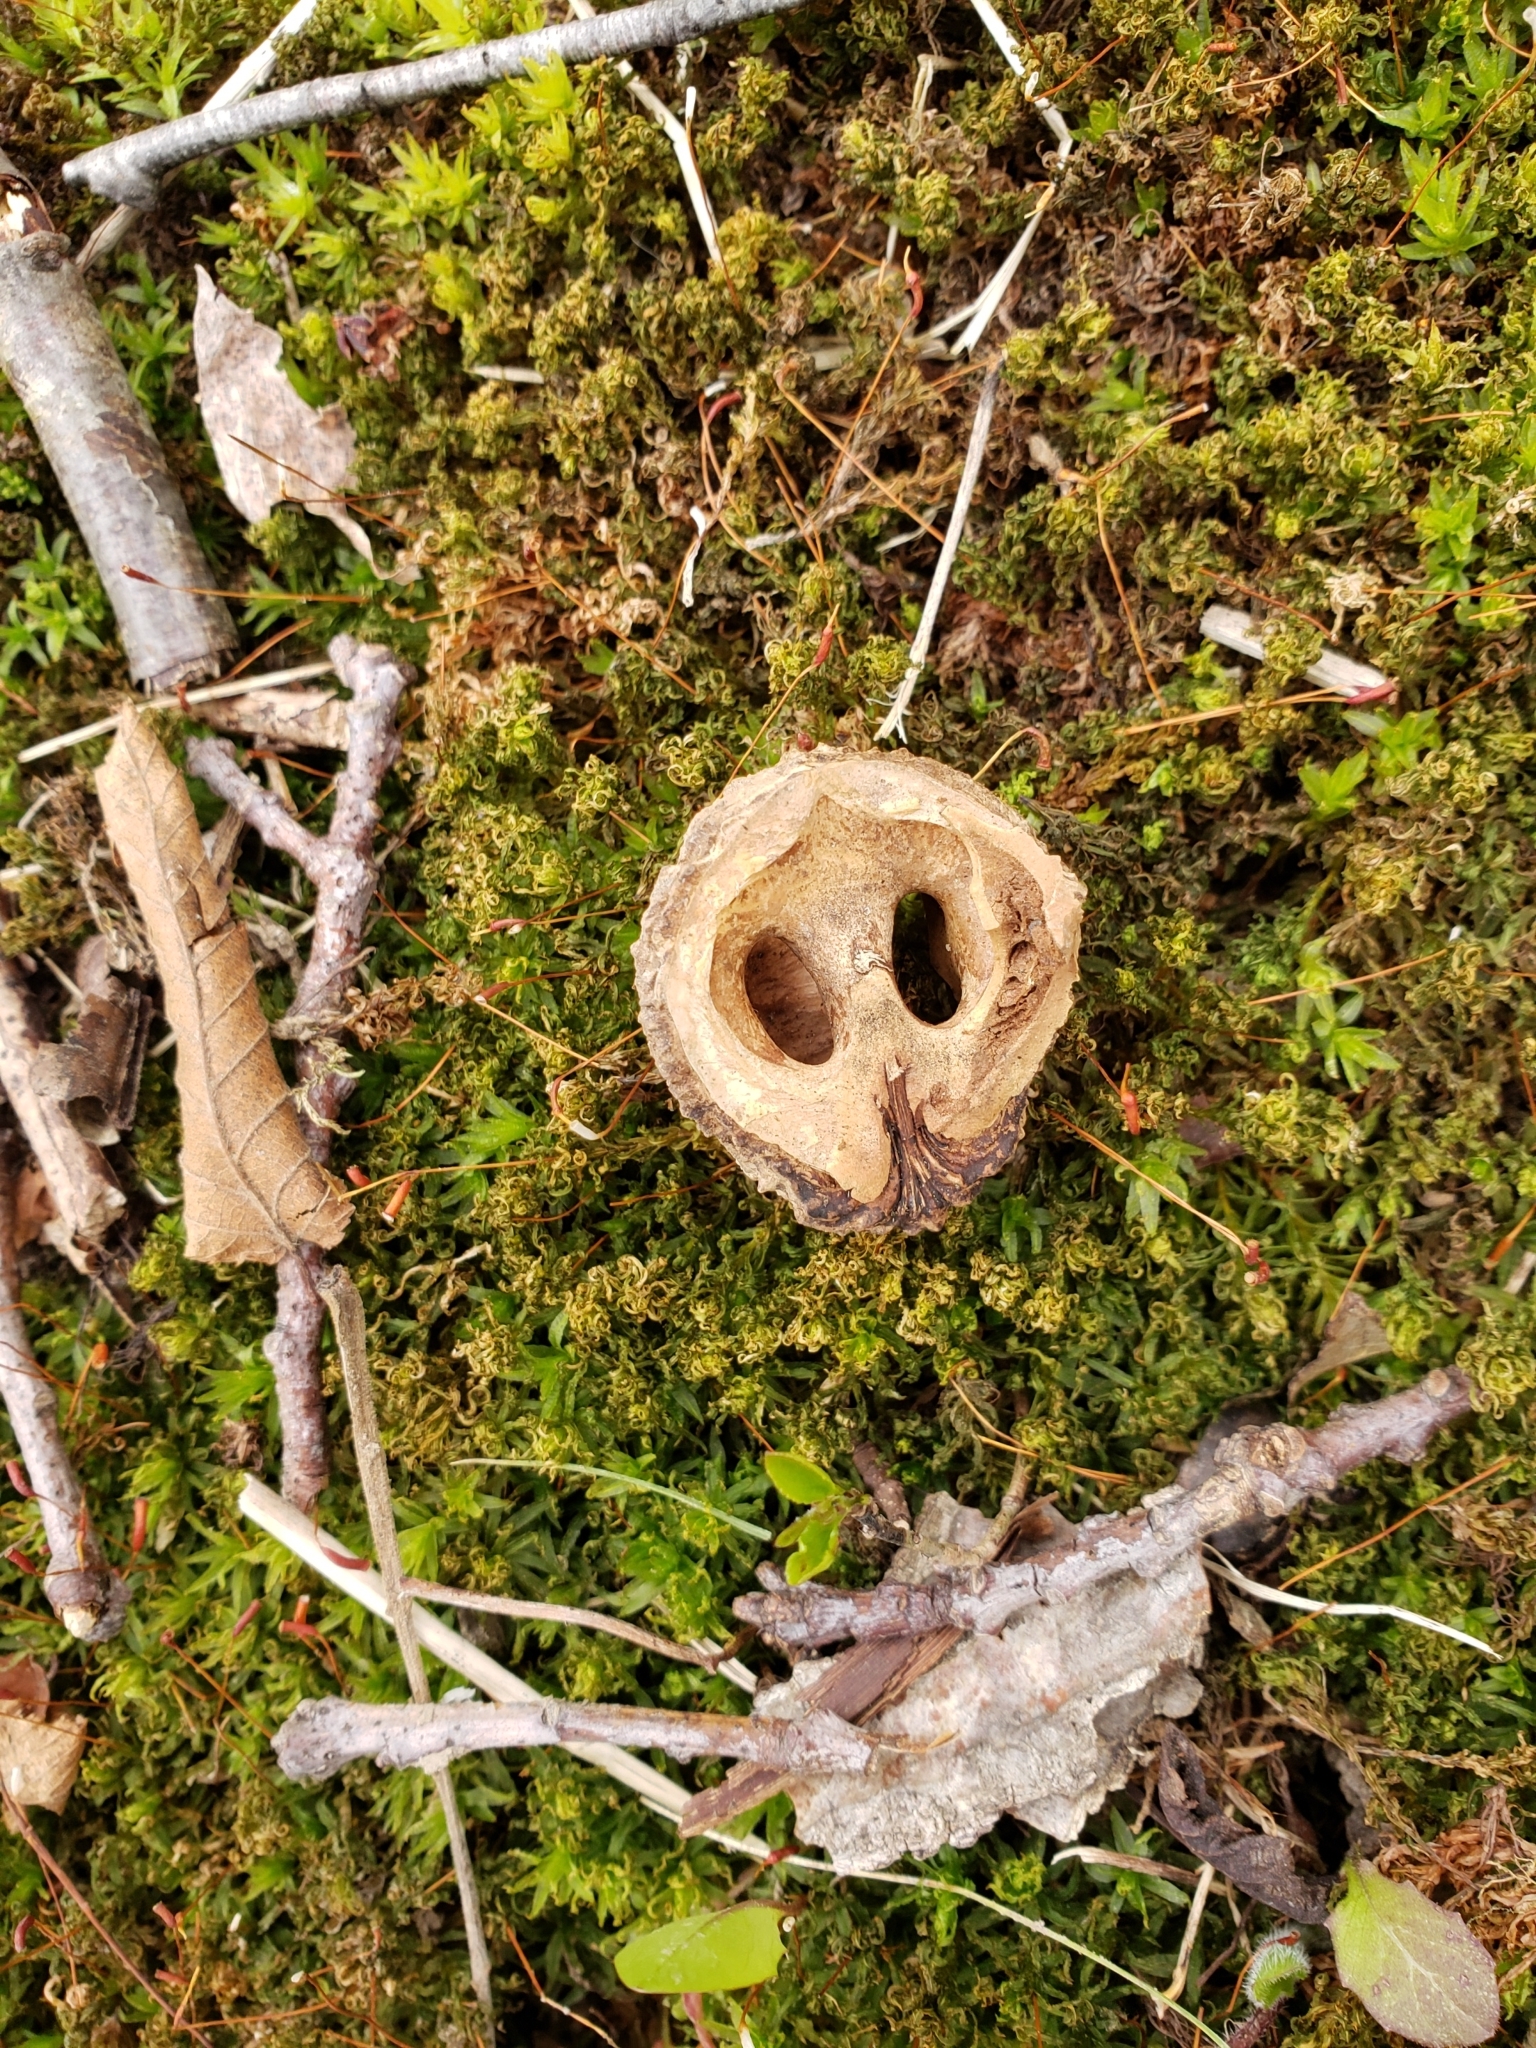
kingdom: Plantae
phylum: Tracheophyta
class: Magnoliopsida
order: Fagales
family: Juglandaceae
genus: Juglans
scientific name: Juglans nigra
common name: Black walnut
